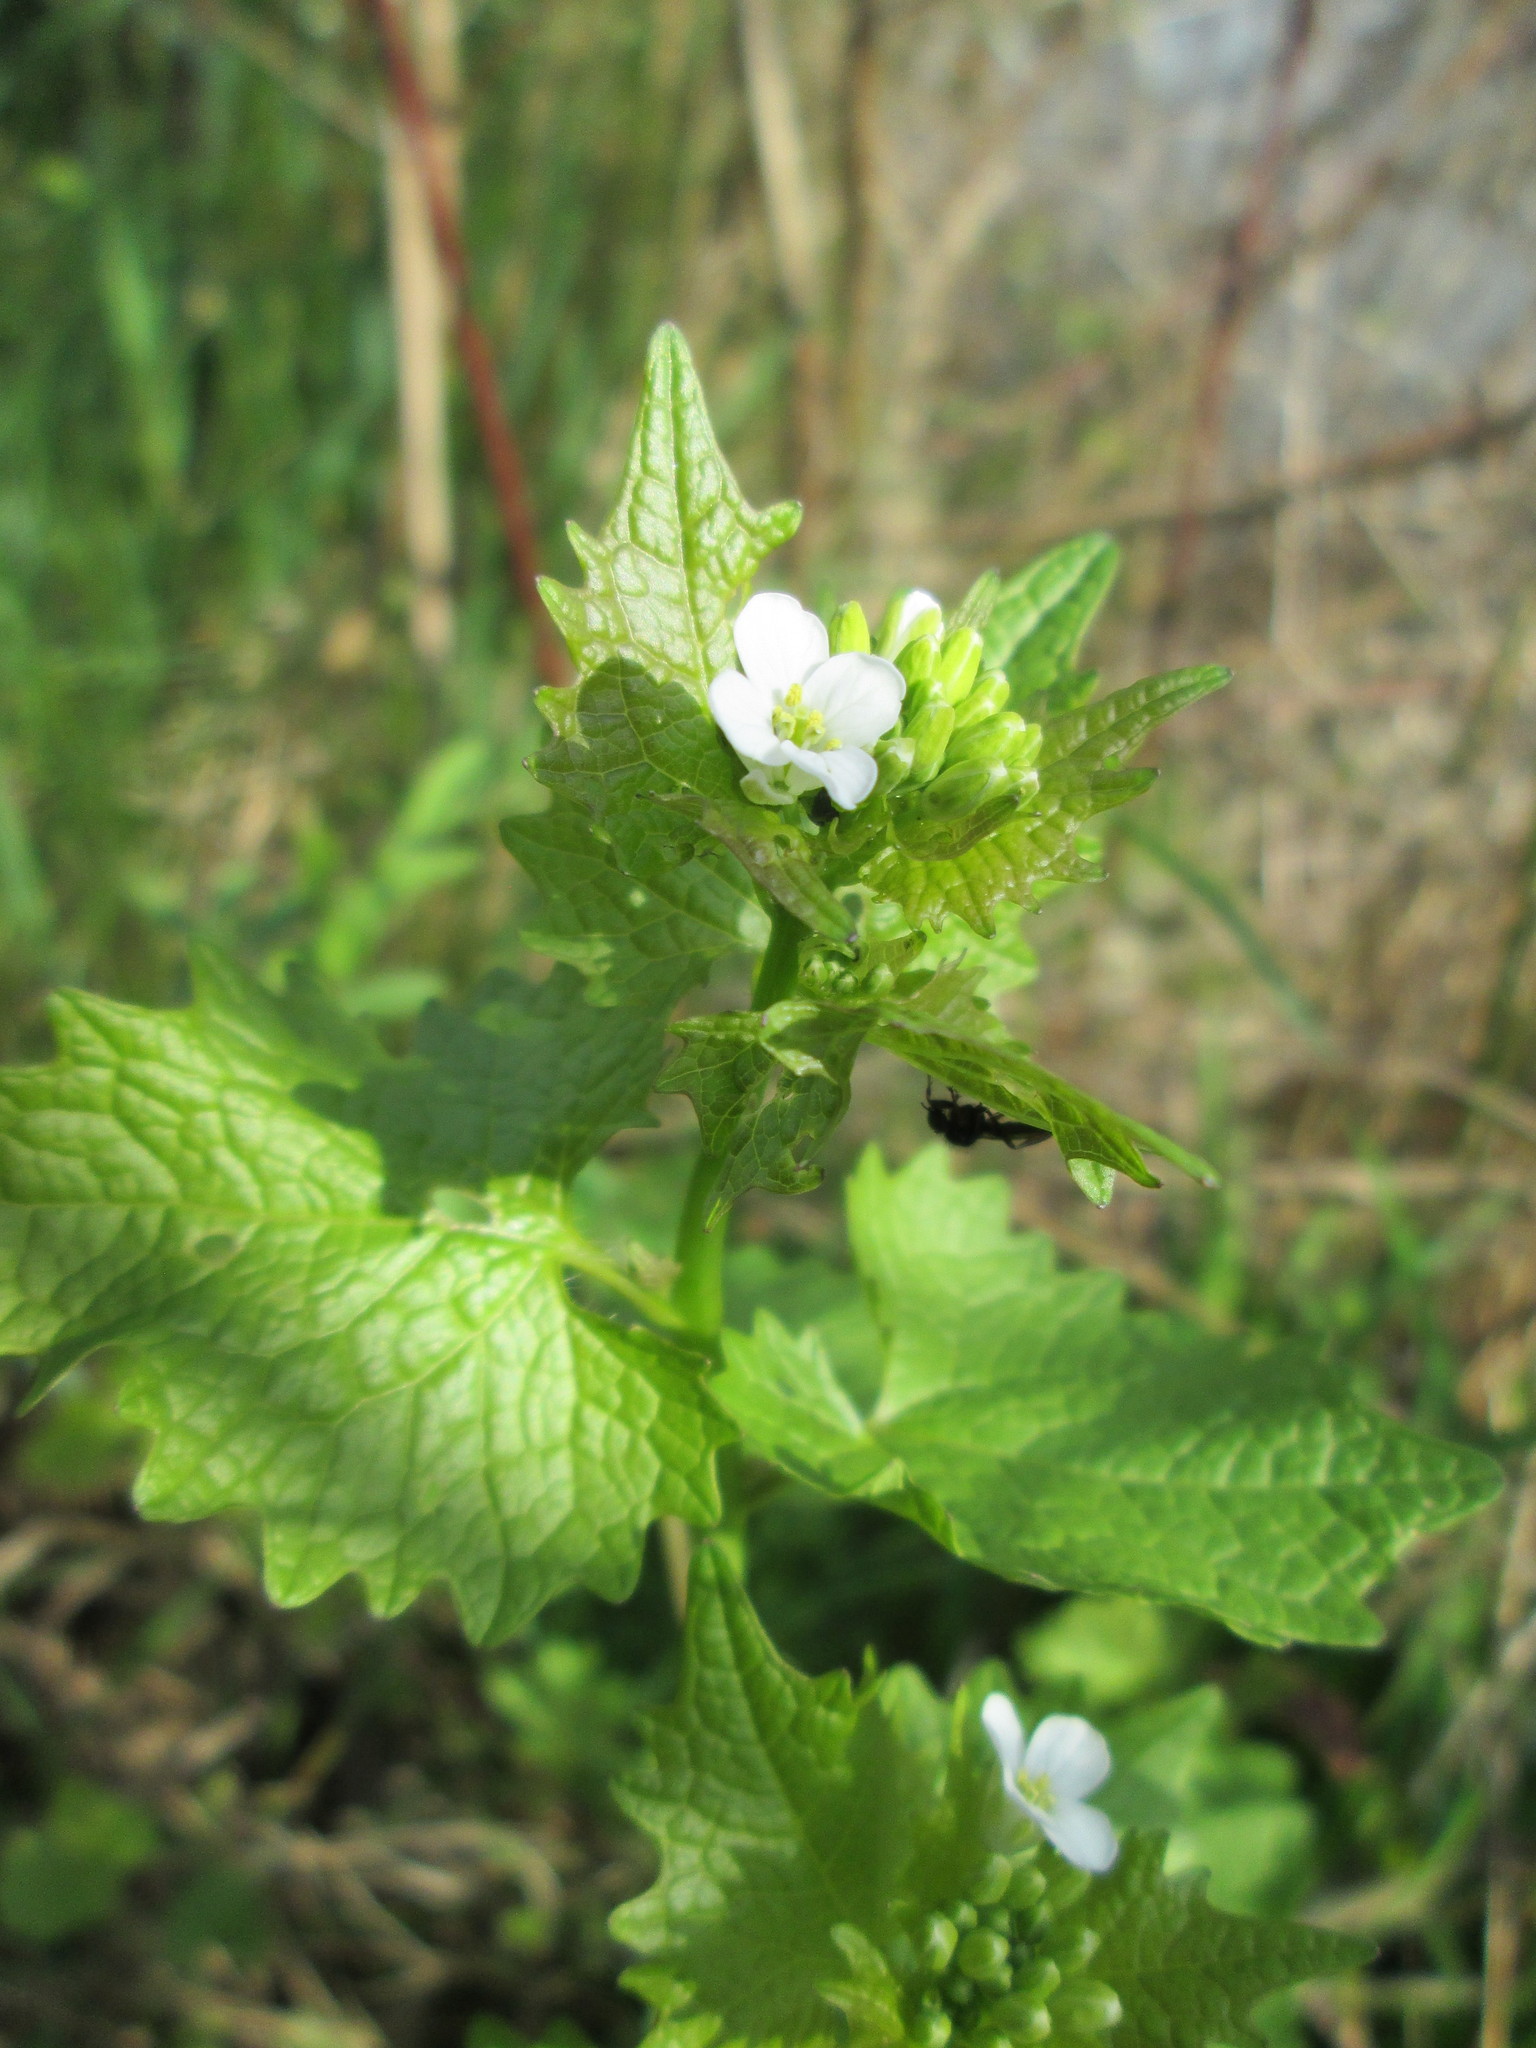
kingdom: Plantae
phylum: Tracheophyta
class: Magnoliopsida
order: Brassicales
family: Brassicaceae
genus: Alliaria
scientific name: Alliaria petiolata
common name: Garlic mustard
